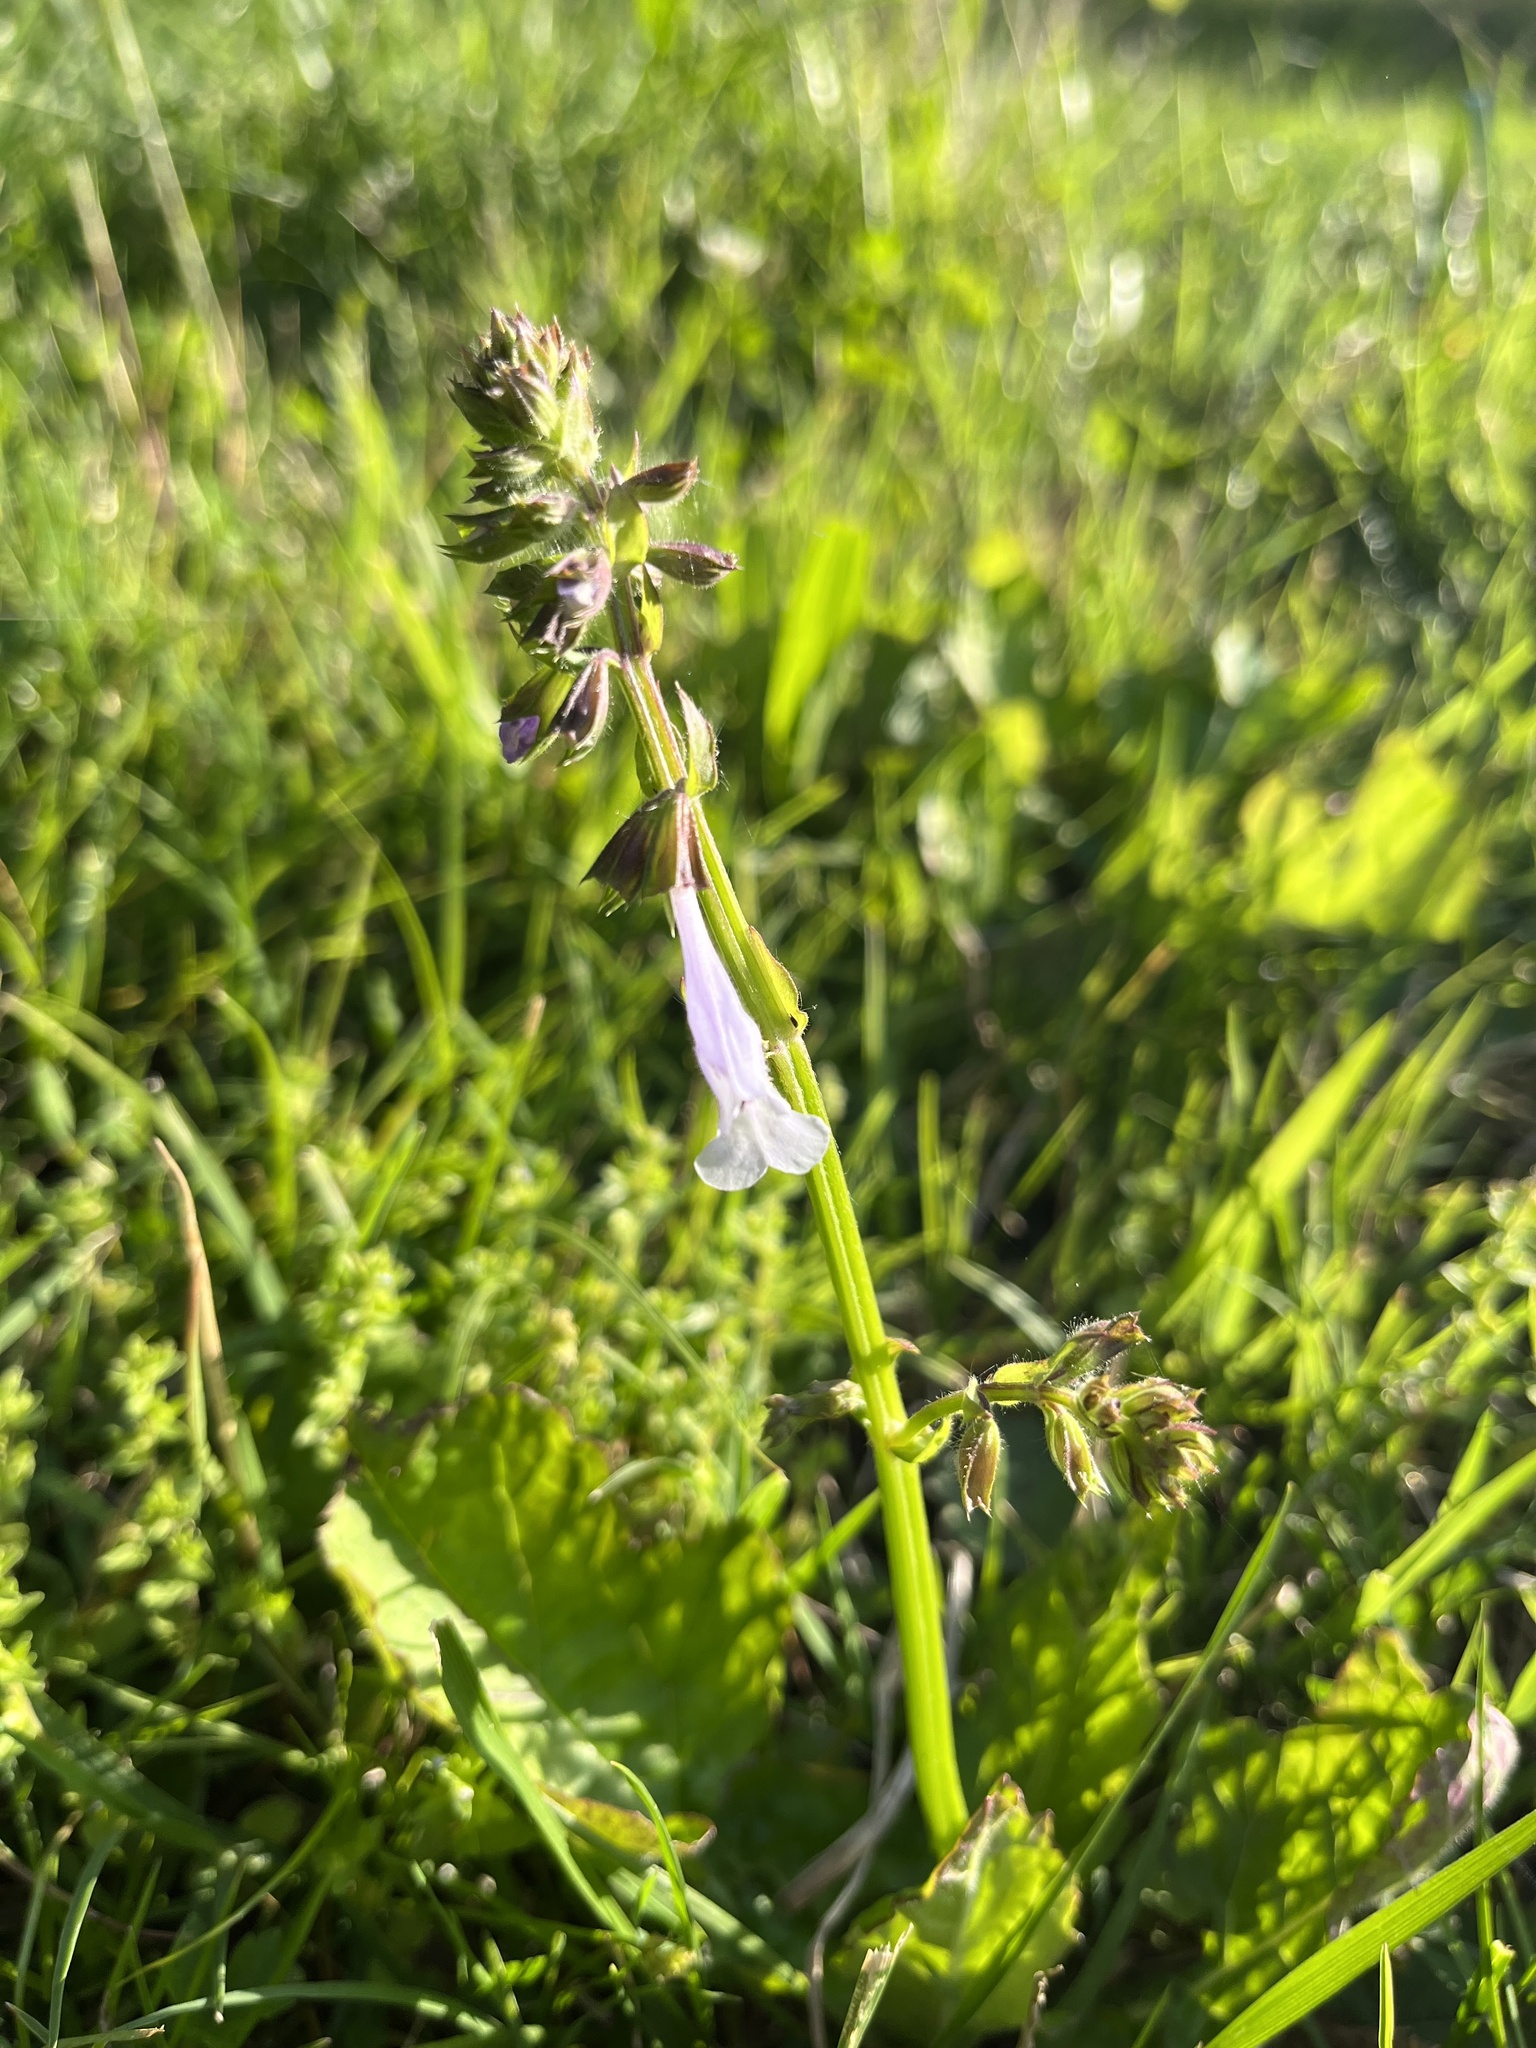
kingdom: Plantae
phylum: Tracheophyta
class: Magnoliopsida
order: Lamiales
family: Lamiaceae
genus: Salvia
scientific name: Salvia lyrata
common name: Cancerweed
